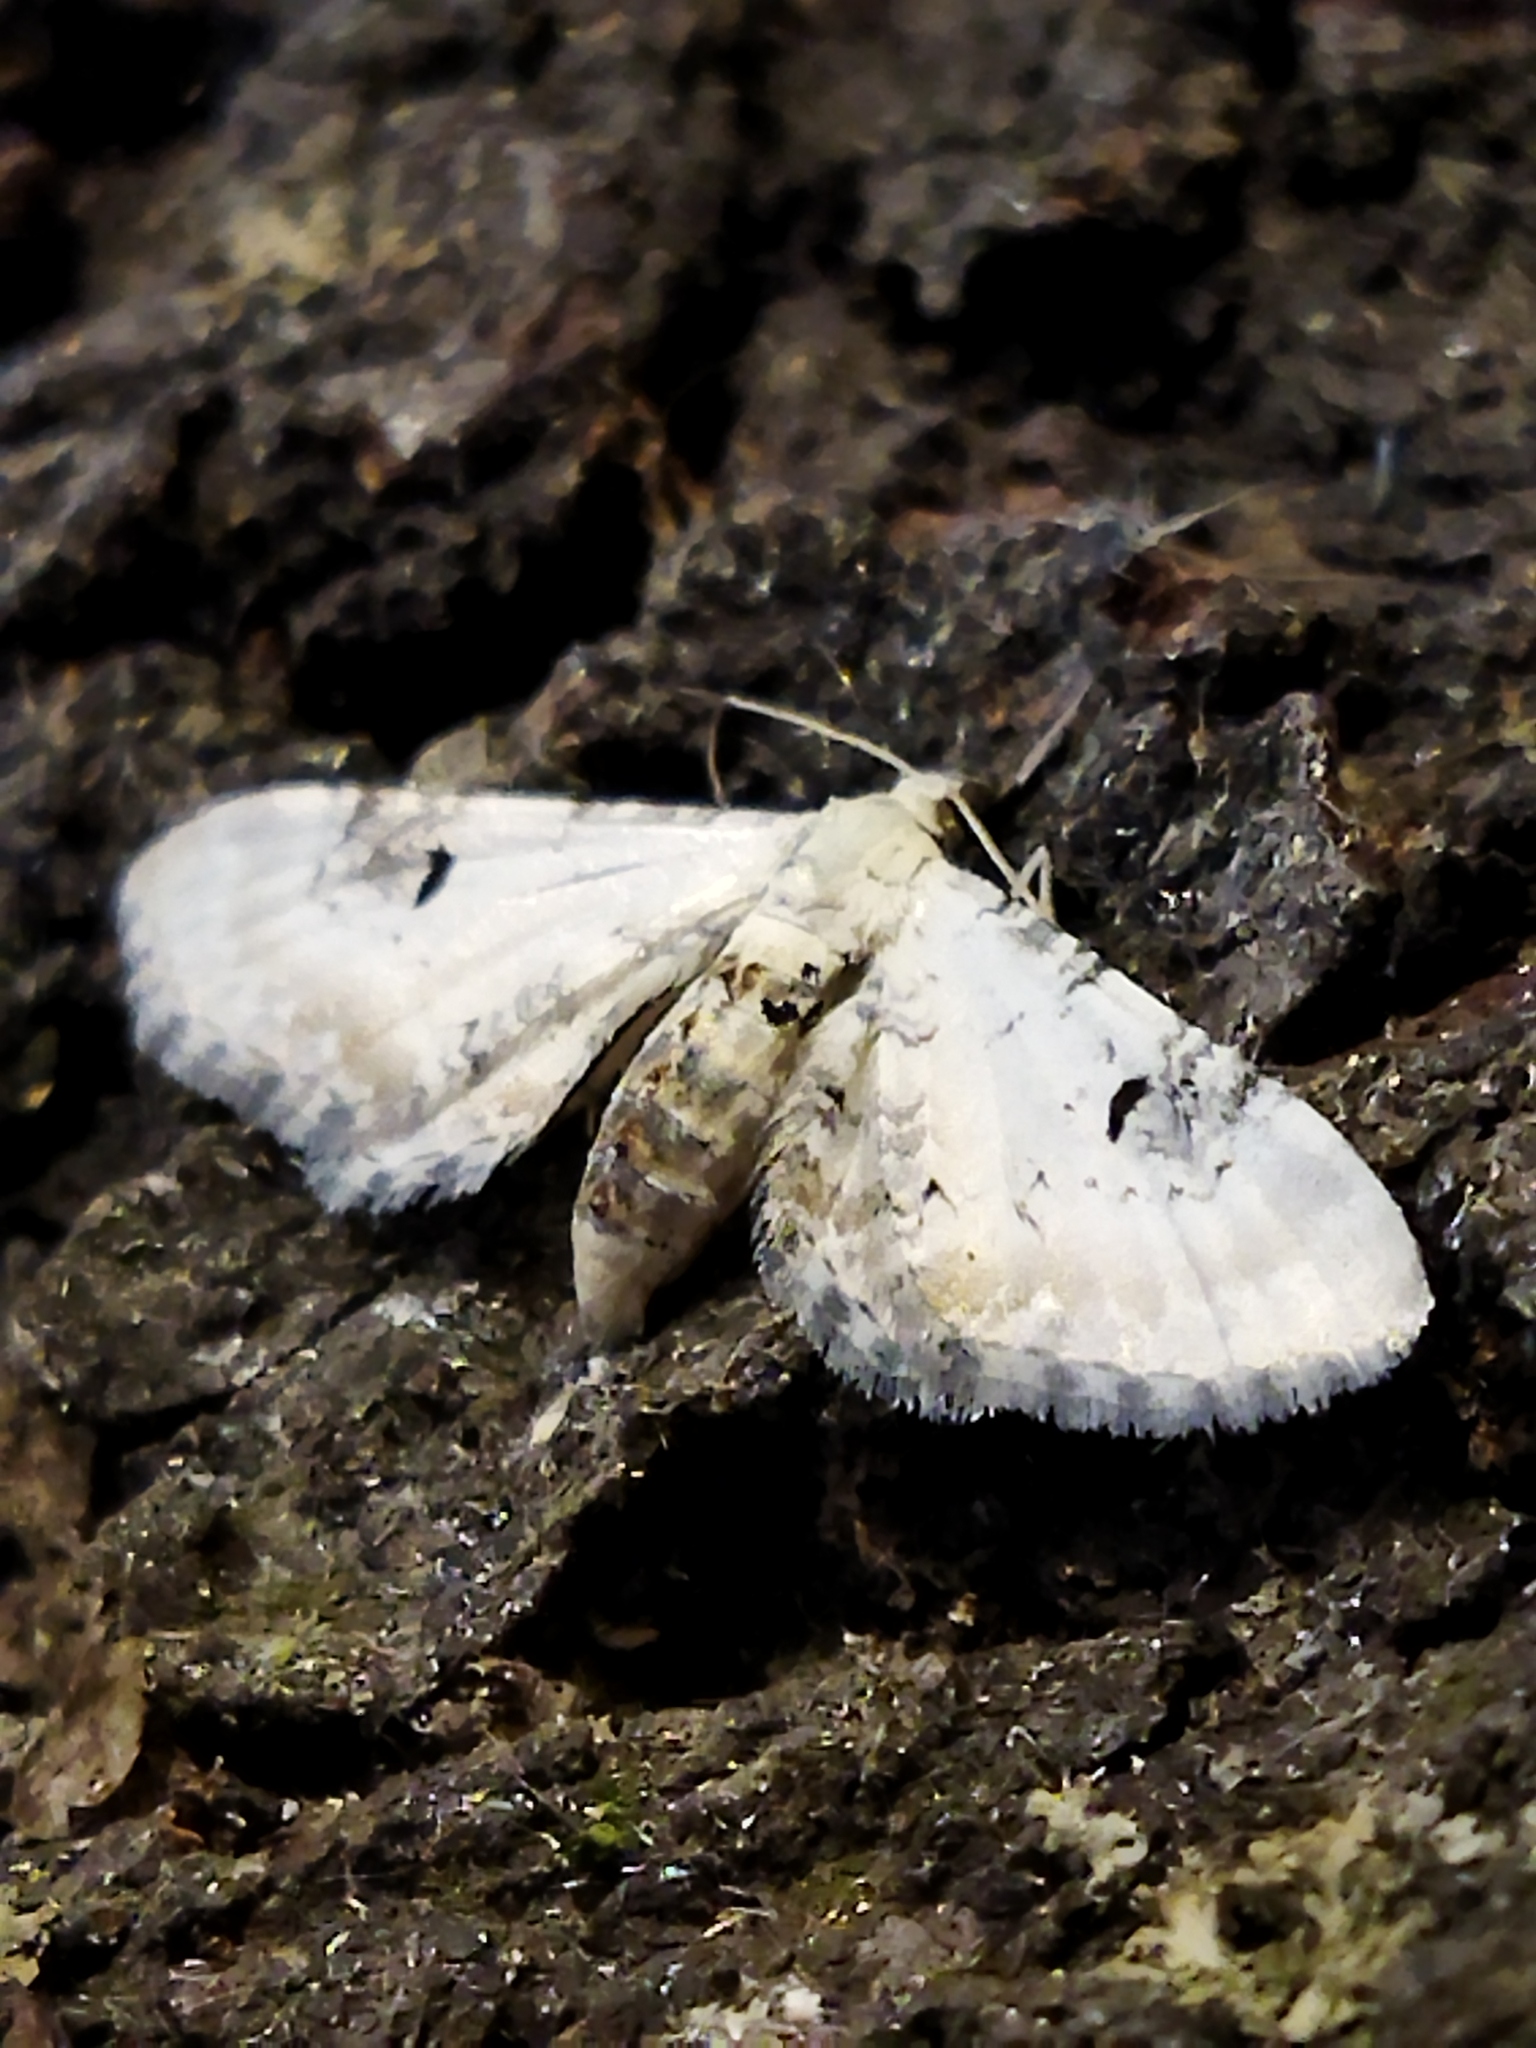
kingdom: Animalia
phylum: Arthropoda
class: Insecta
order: Lepidoptera
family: Geometridae
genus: Eupithecia
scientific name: Eupithecia centaureata
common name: Lime-speck pug
